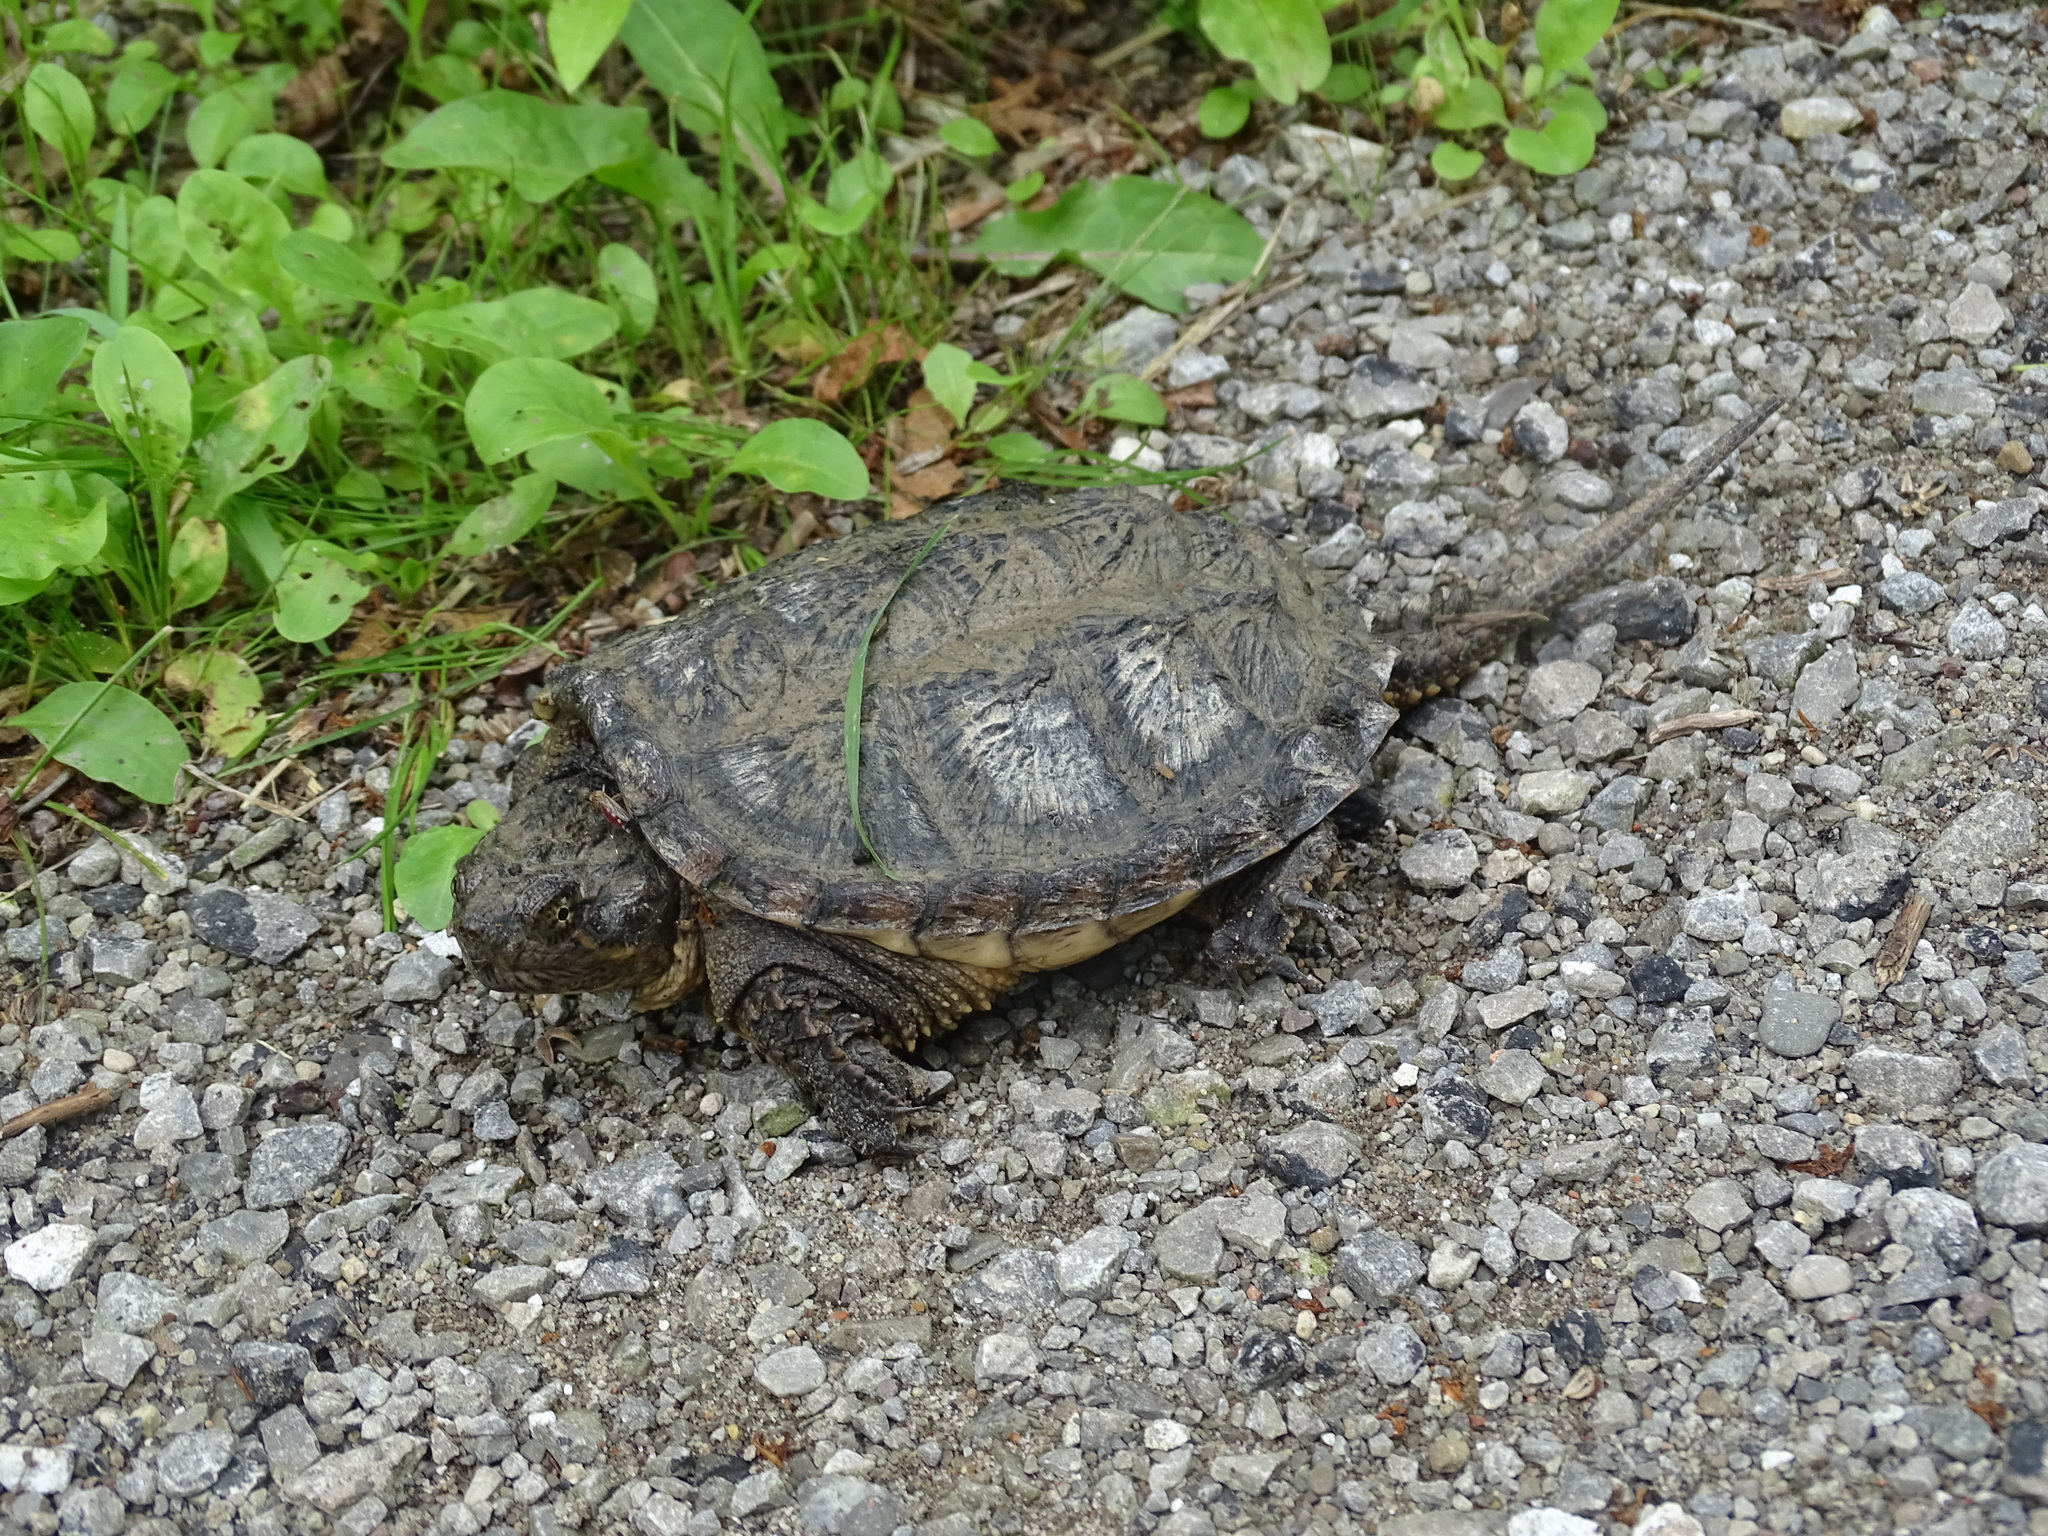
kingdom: Animalia
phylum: Chordata
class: Testudines
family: Chelydridae
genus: Chelydra
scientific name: Chelydra serpentina
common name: Common snapping turtle
